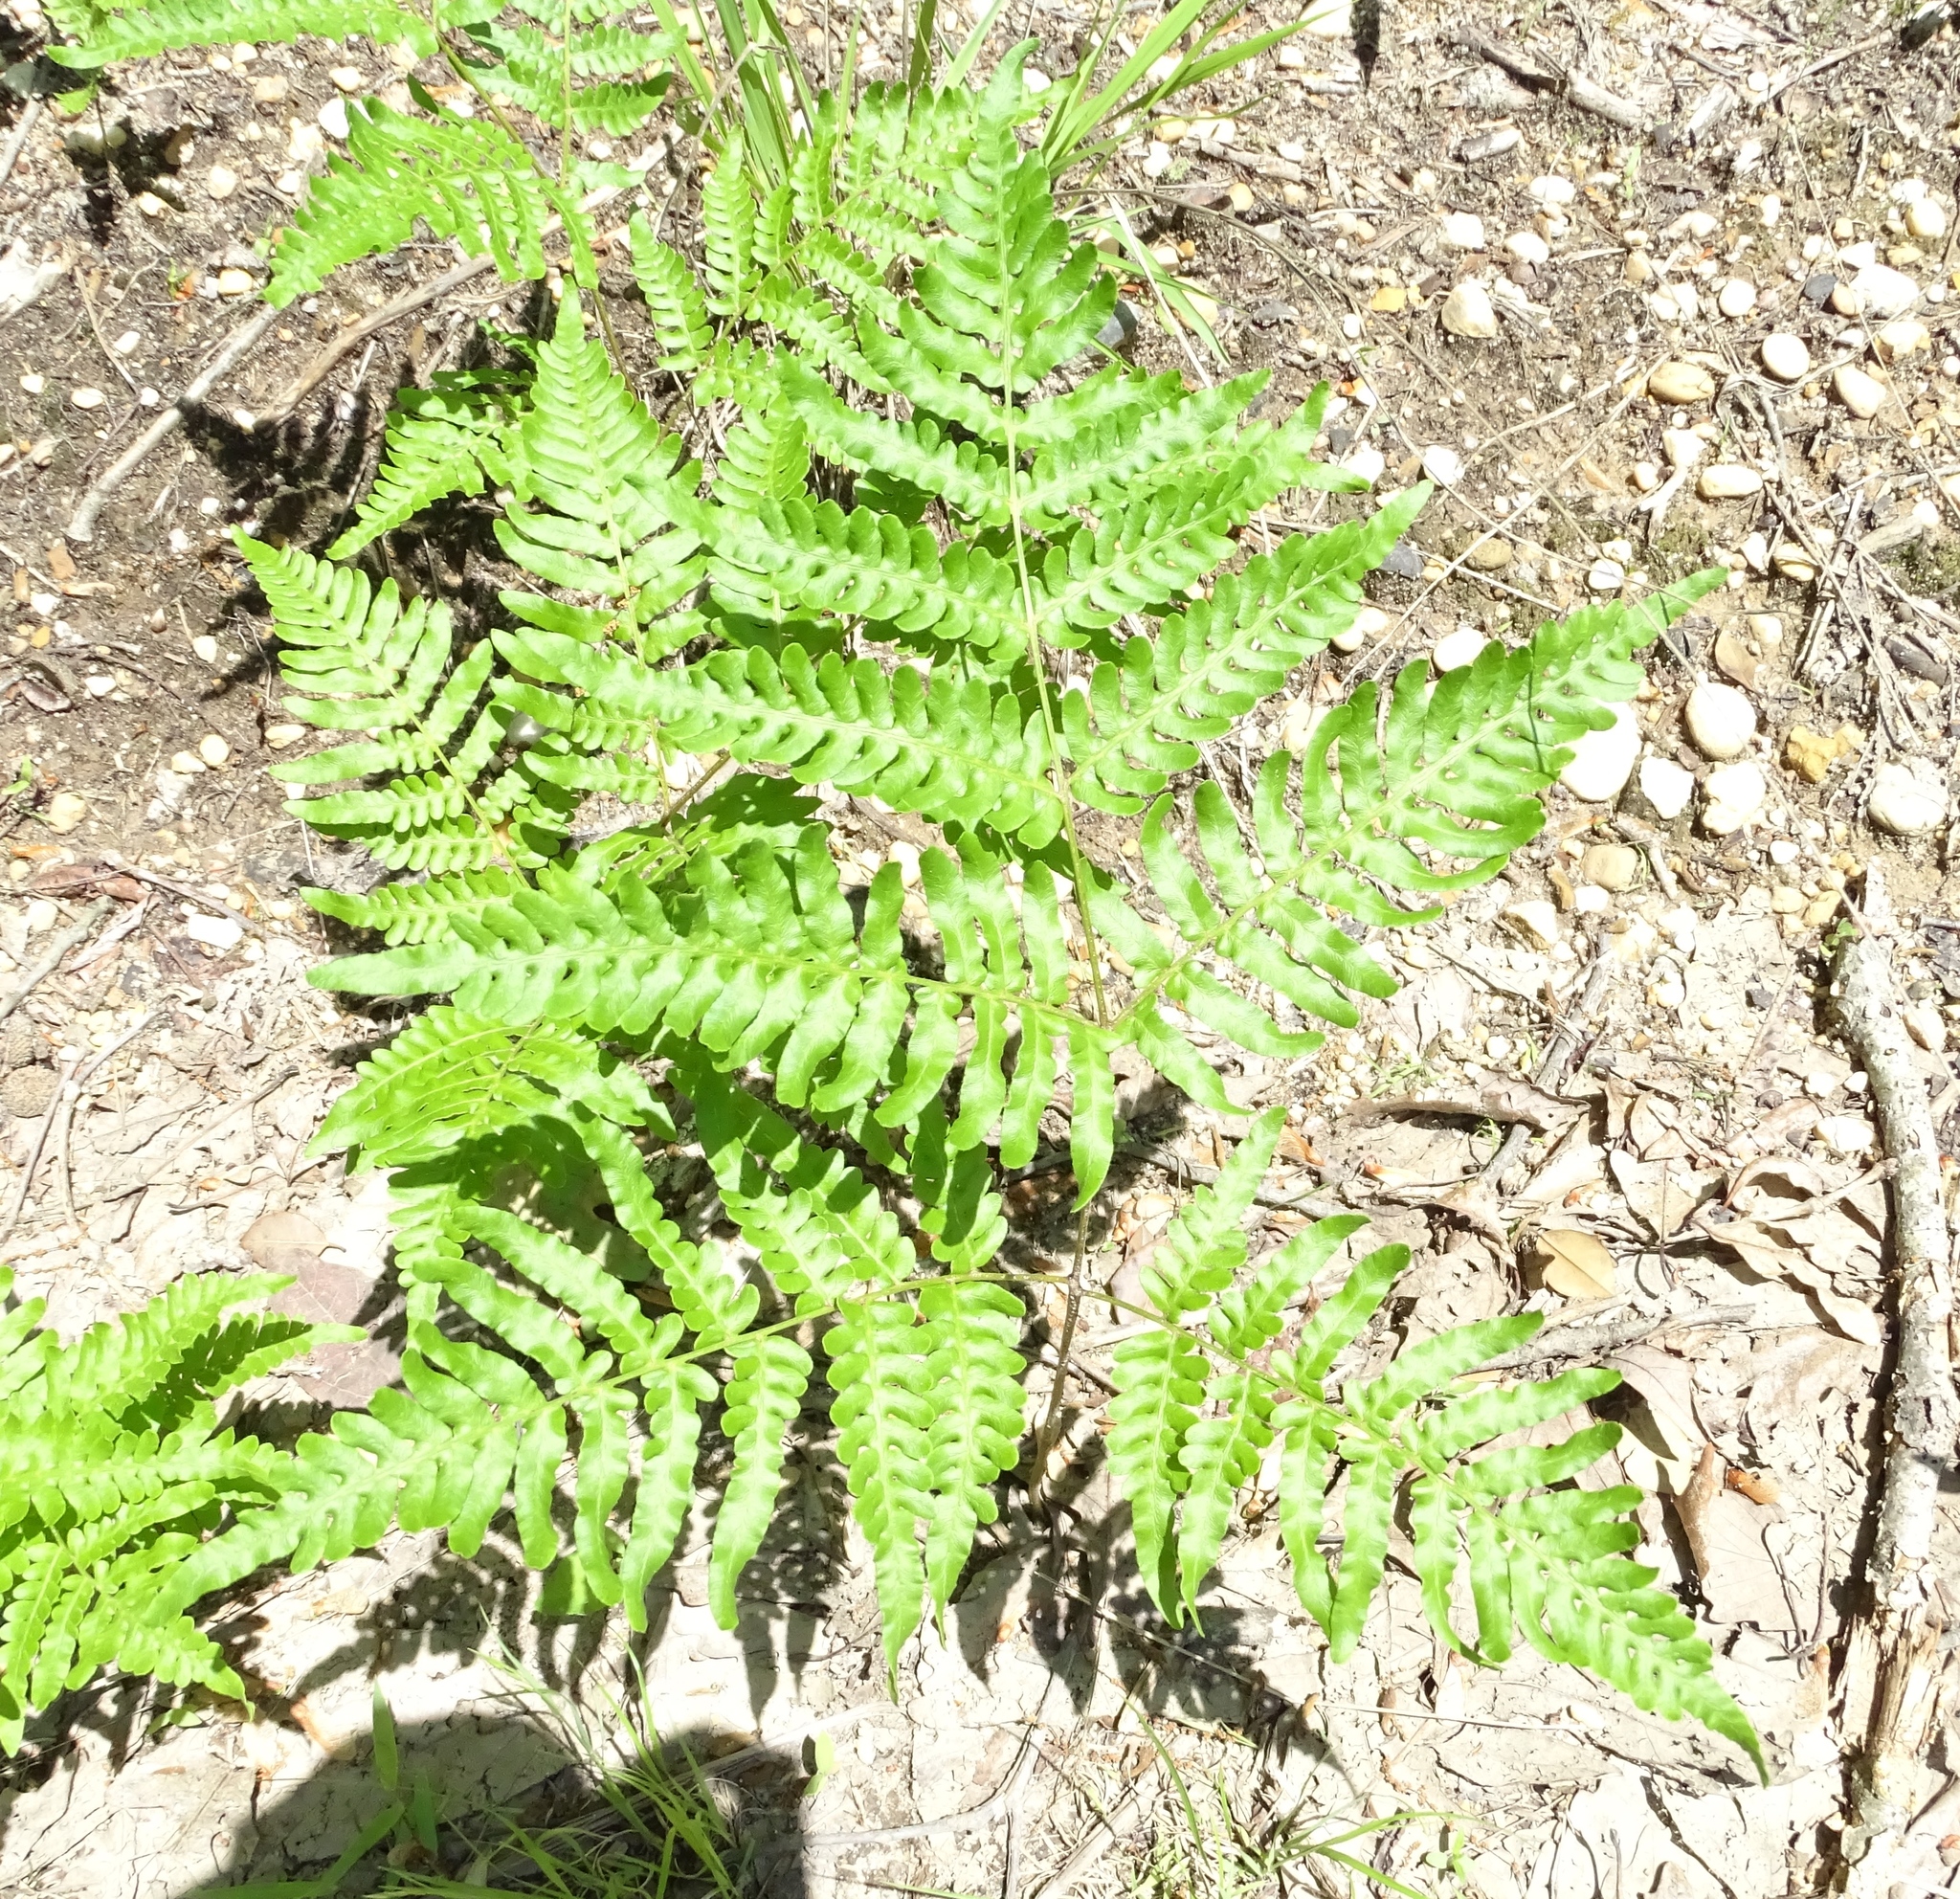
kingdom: Plantae
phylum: Tracheophyta
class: Polypodiopsida
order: Polypodiales
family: Dennstaedtiaceae
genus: Pteridium
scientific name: Pteridium aquilinum
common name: Bracken
